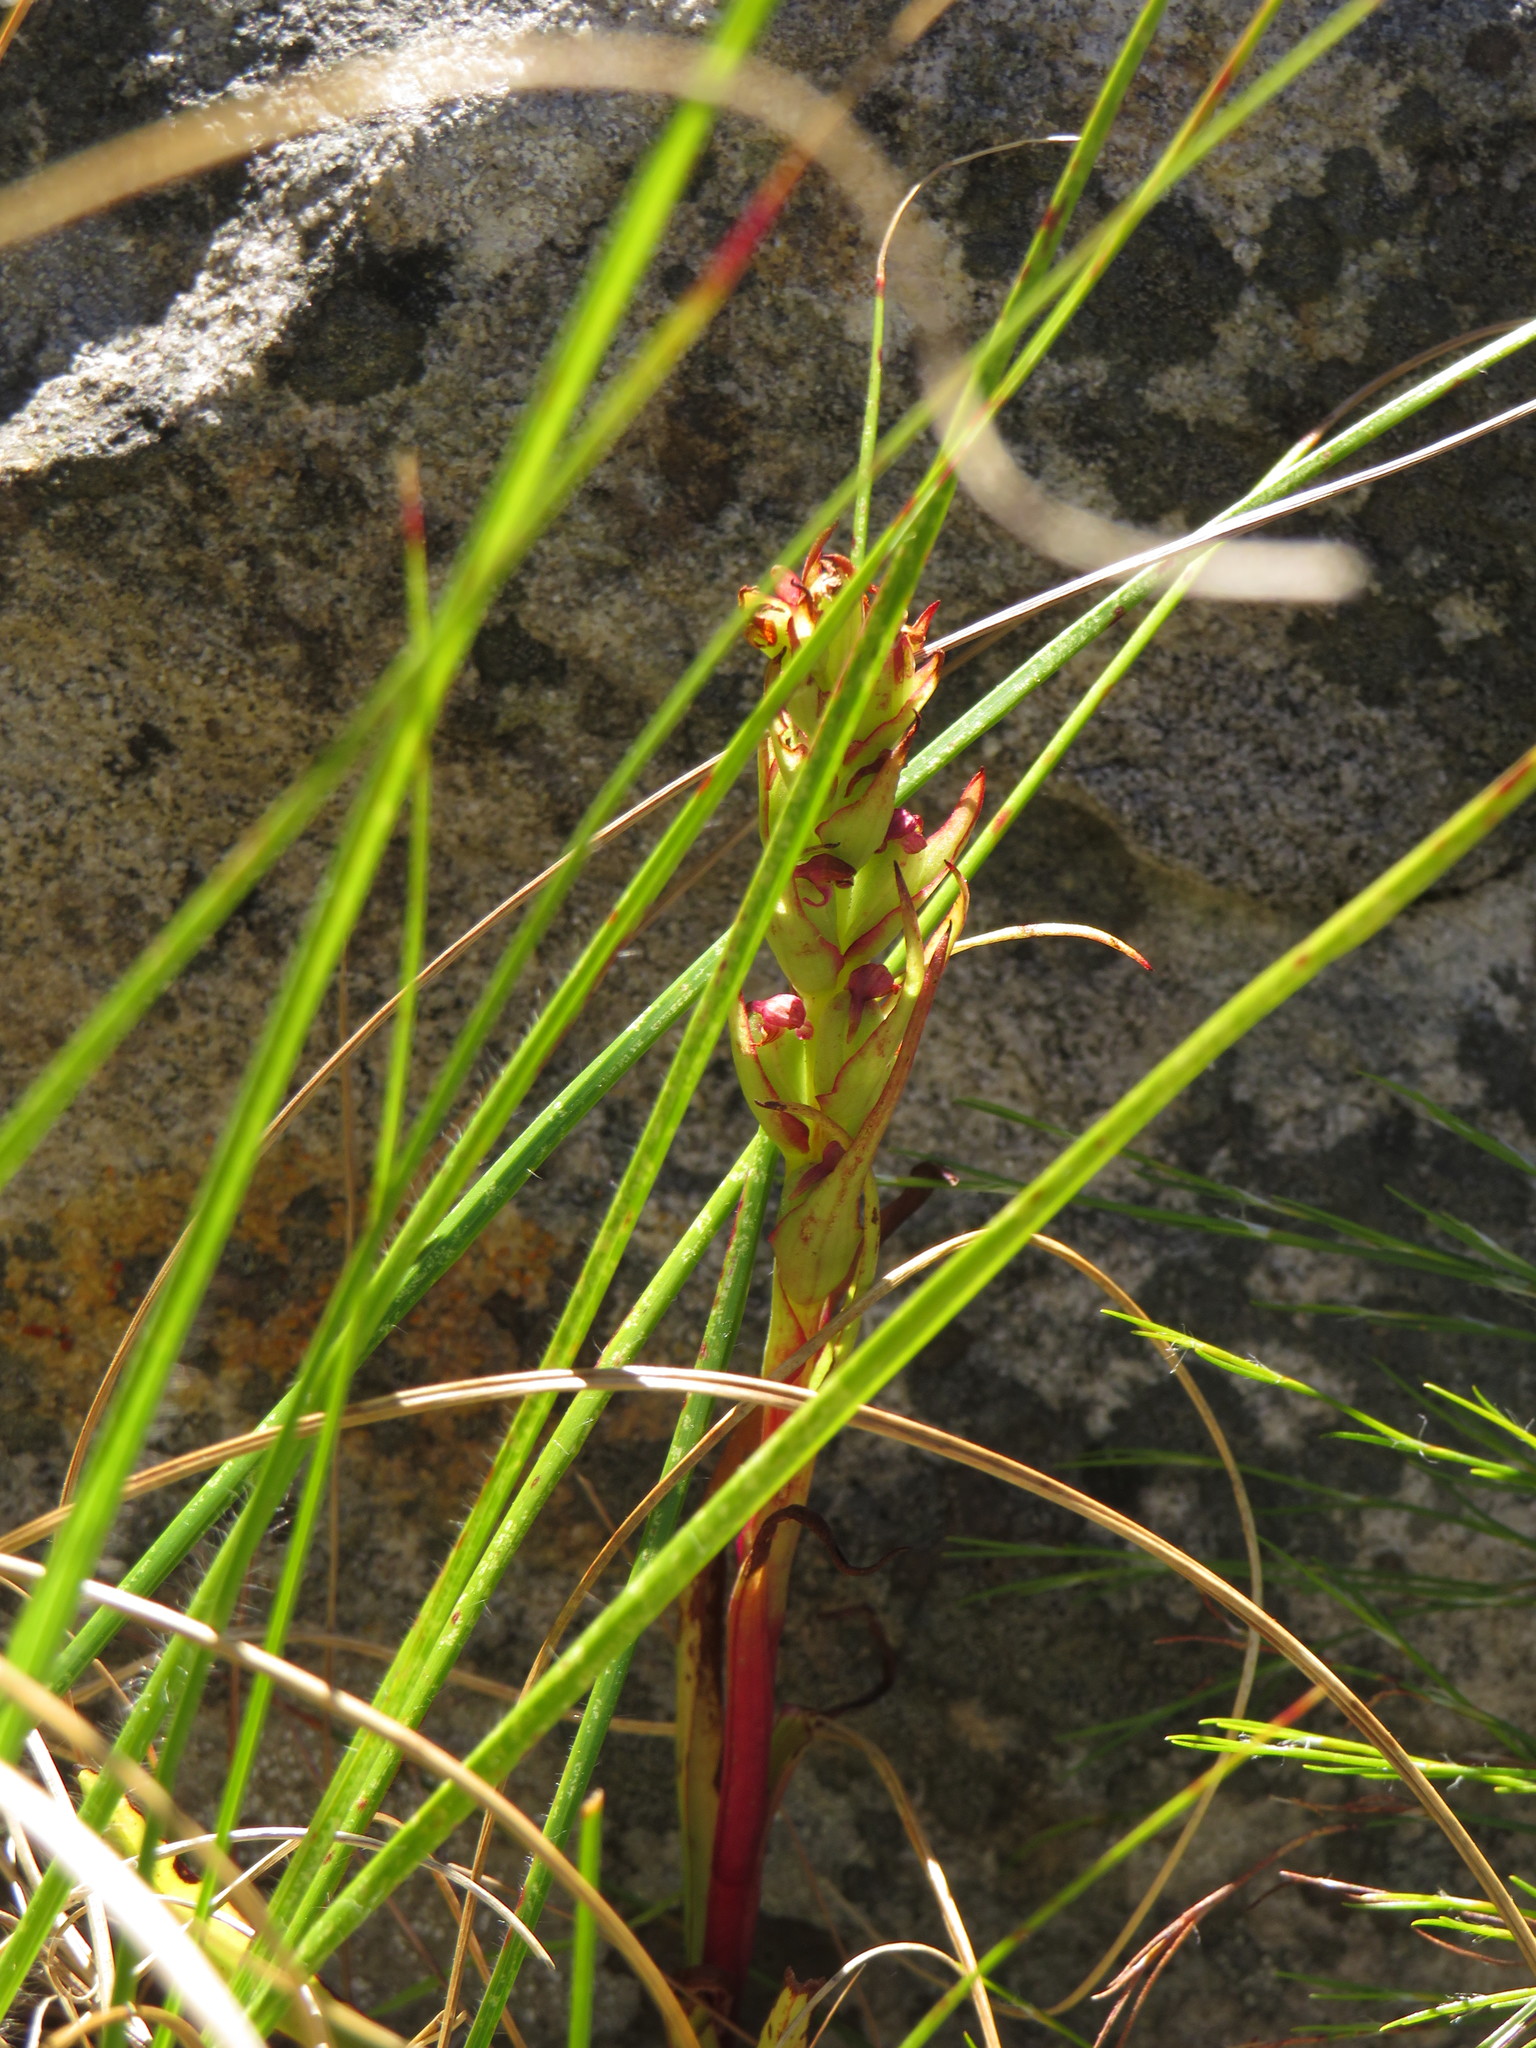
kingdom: Plantae
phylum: Tracheophyta
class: Liliopsida
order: Asparagales
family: Orchidaceae
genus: Disa
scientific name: Disa bracteata
